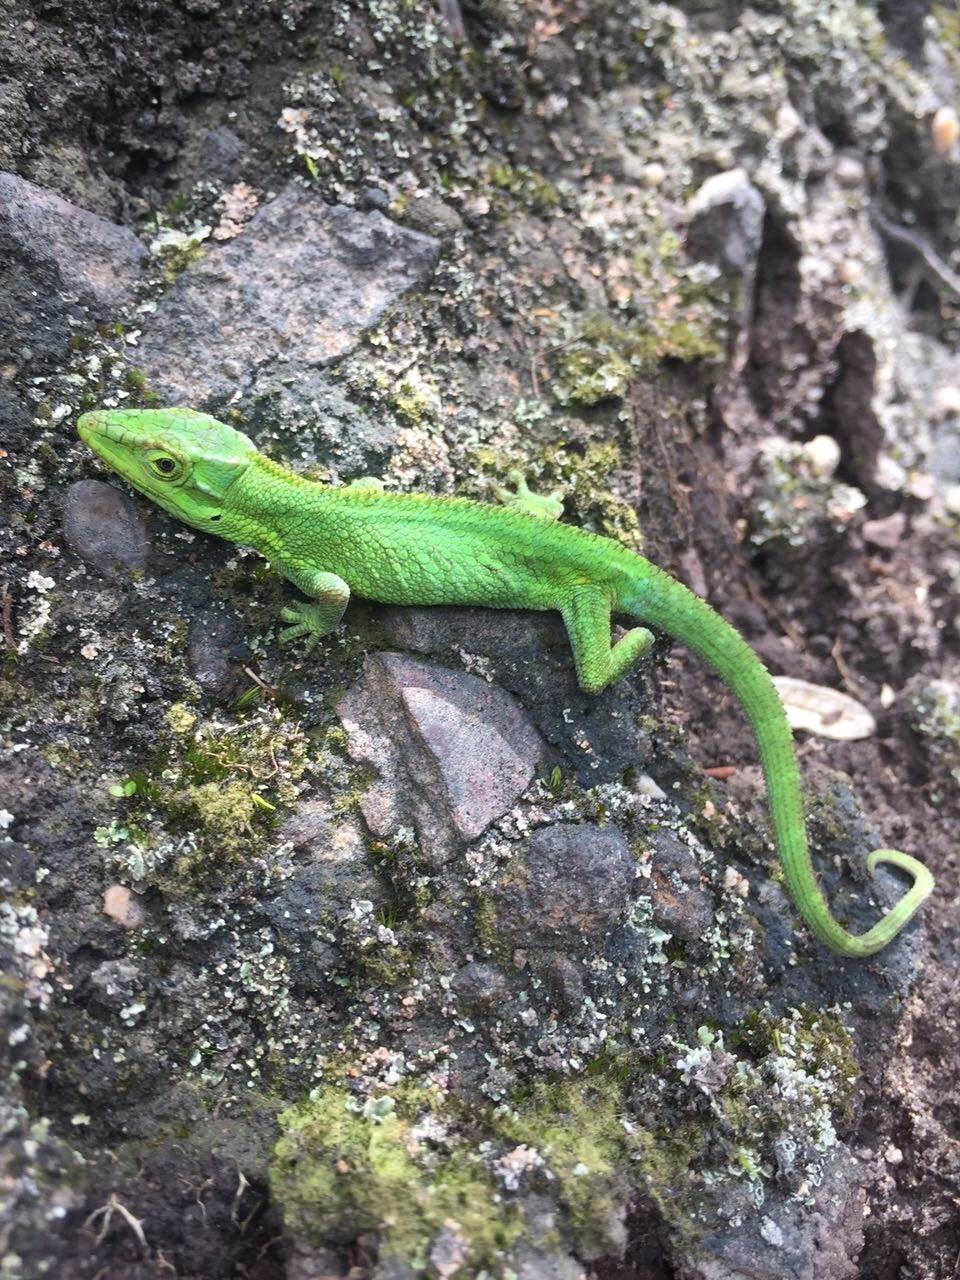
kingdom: Animalia
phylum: Chordata
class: Squamata
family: Dactyloidae
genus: Anolis
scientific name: Anolis heterodermus
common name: Flat andes anole
